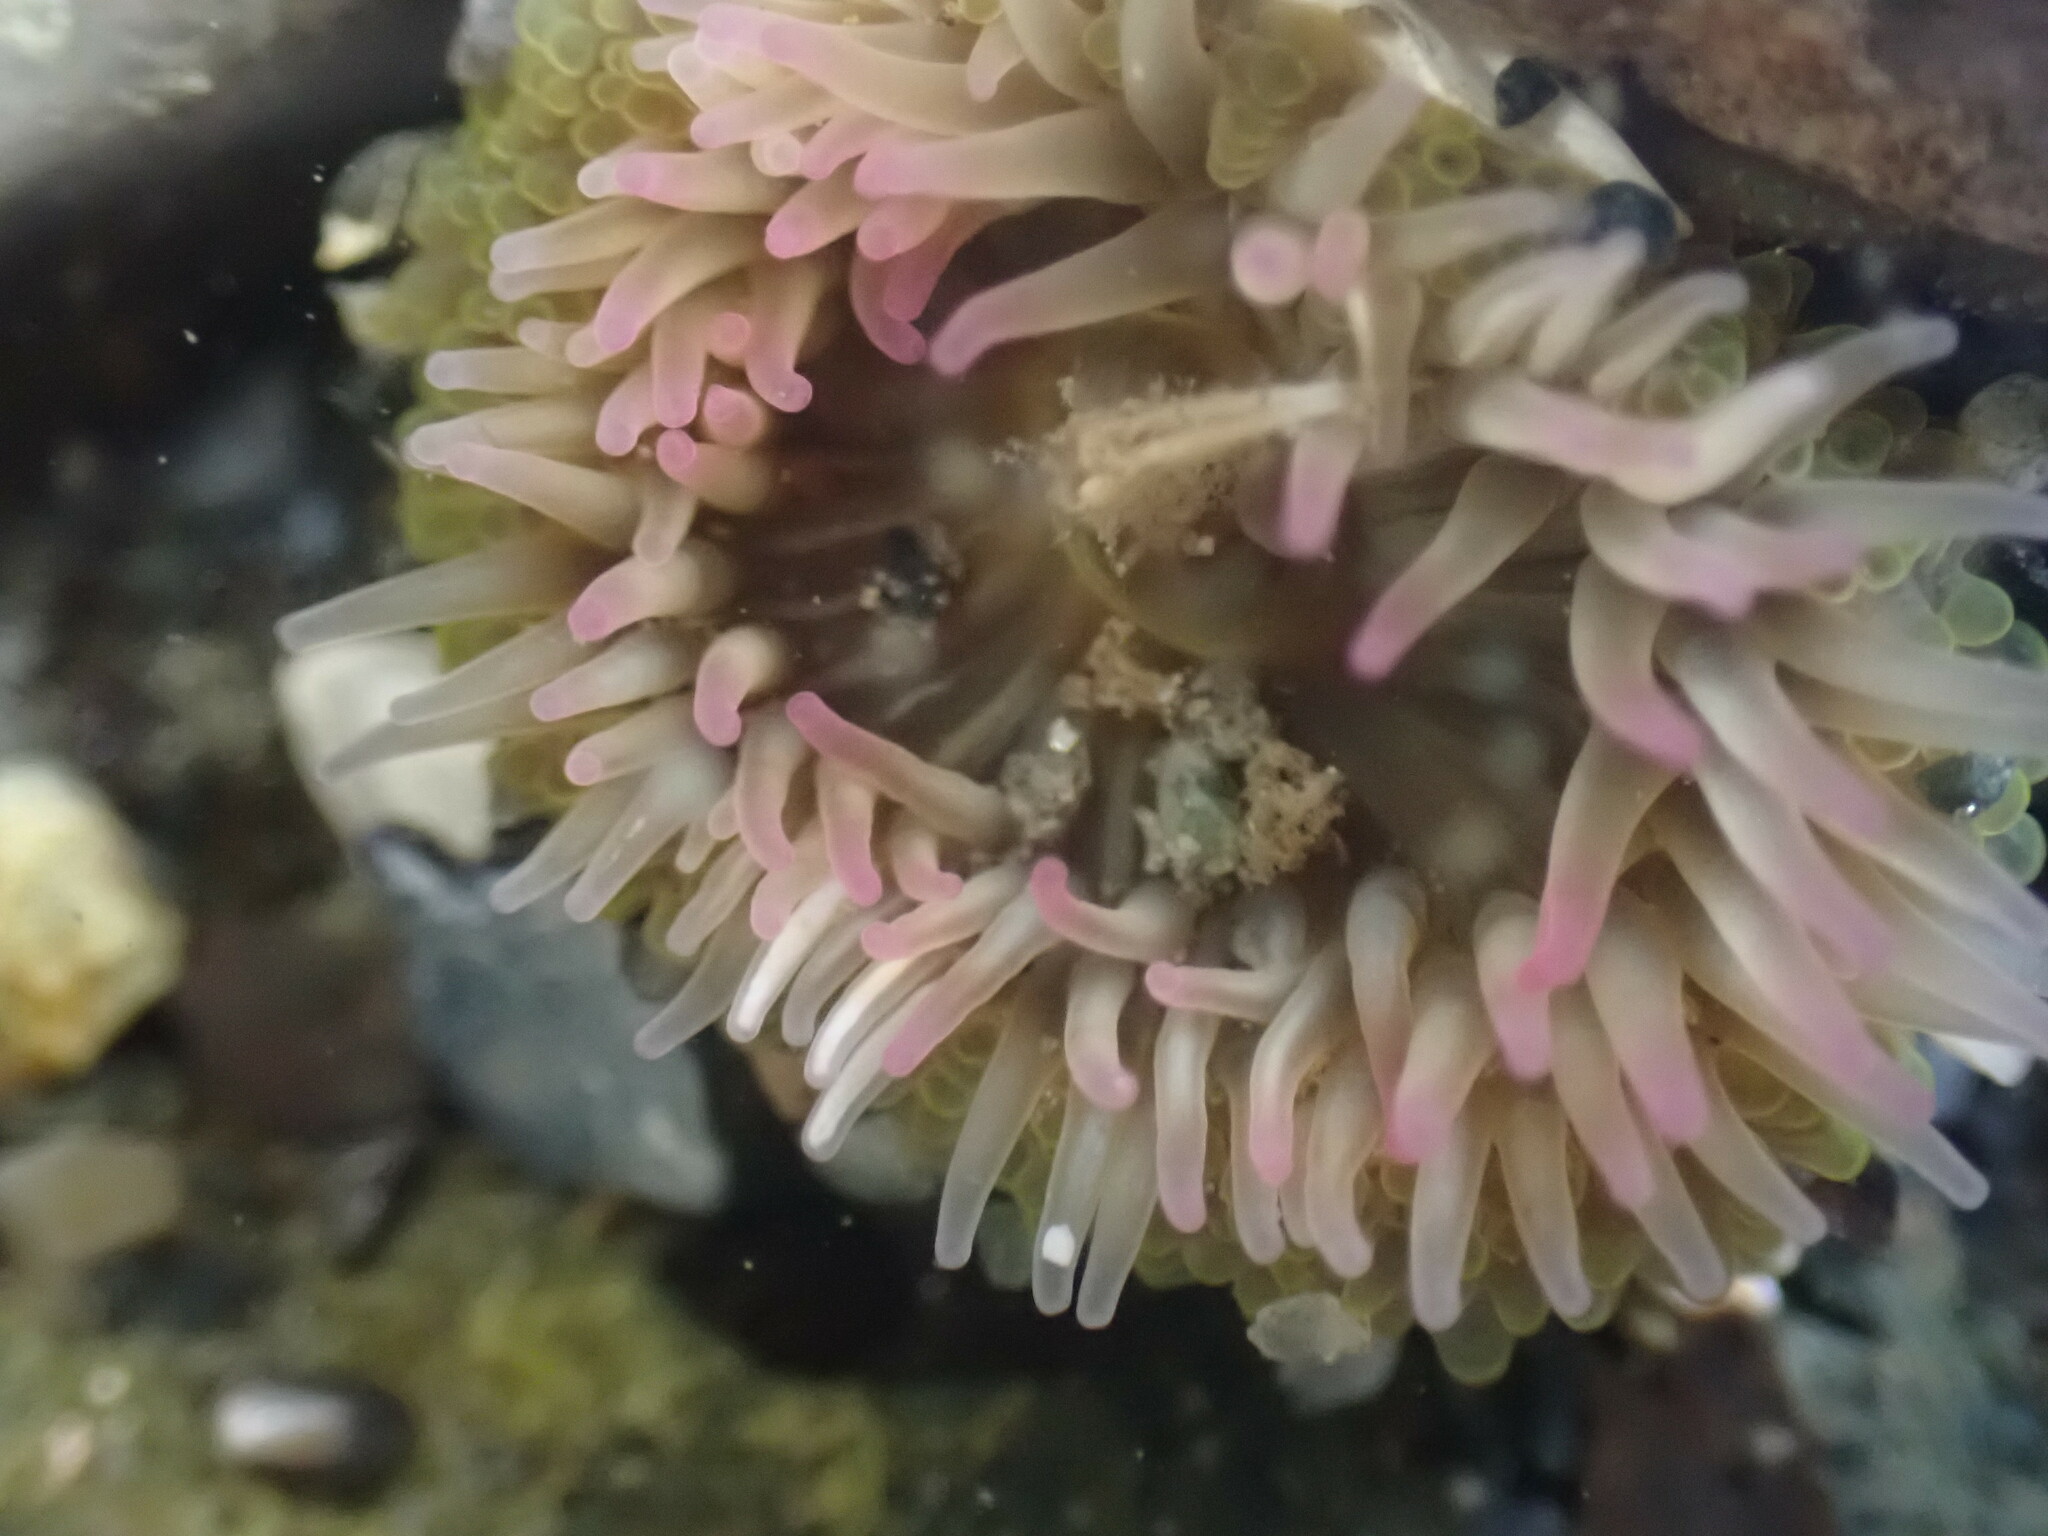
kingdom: Animalia
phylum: Cnidaria
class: Anthozoa
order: Actiniaria
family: Actiniidae
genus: Anthopleura
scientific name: Anthopleura elegantissima
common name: Clonal anemone
